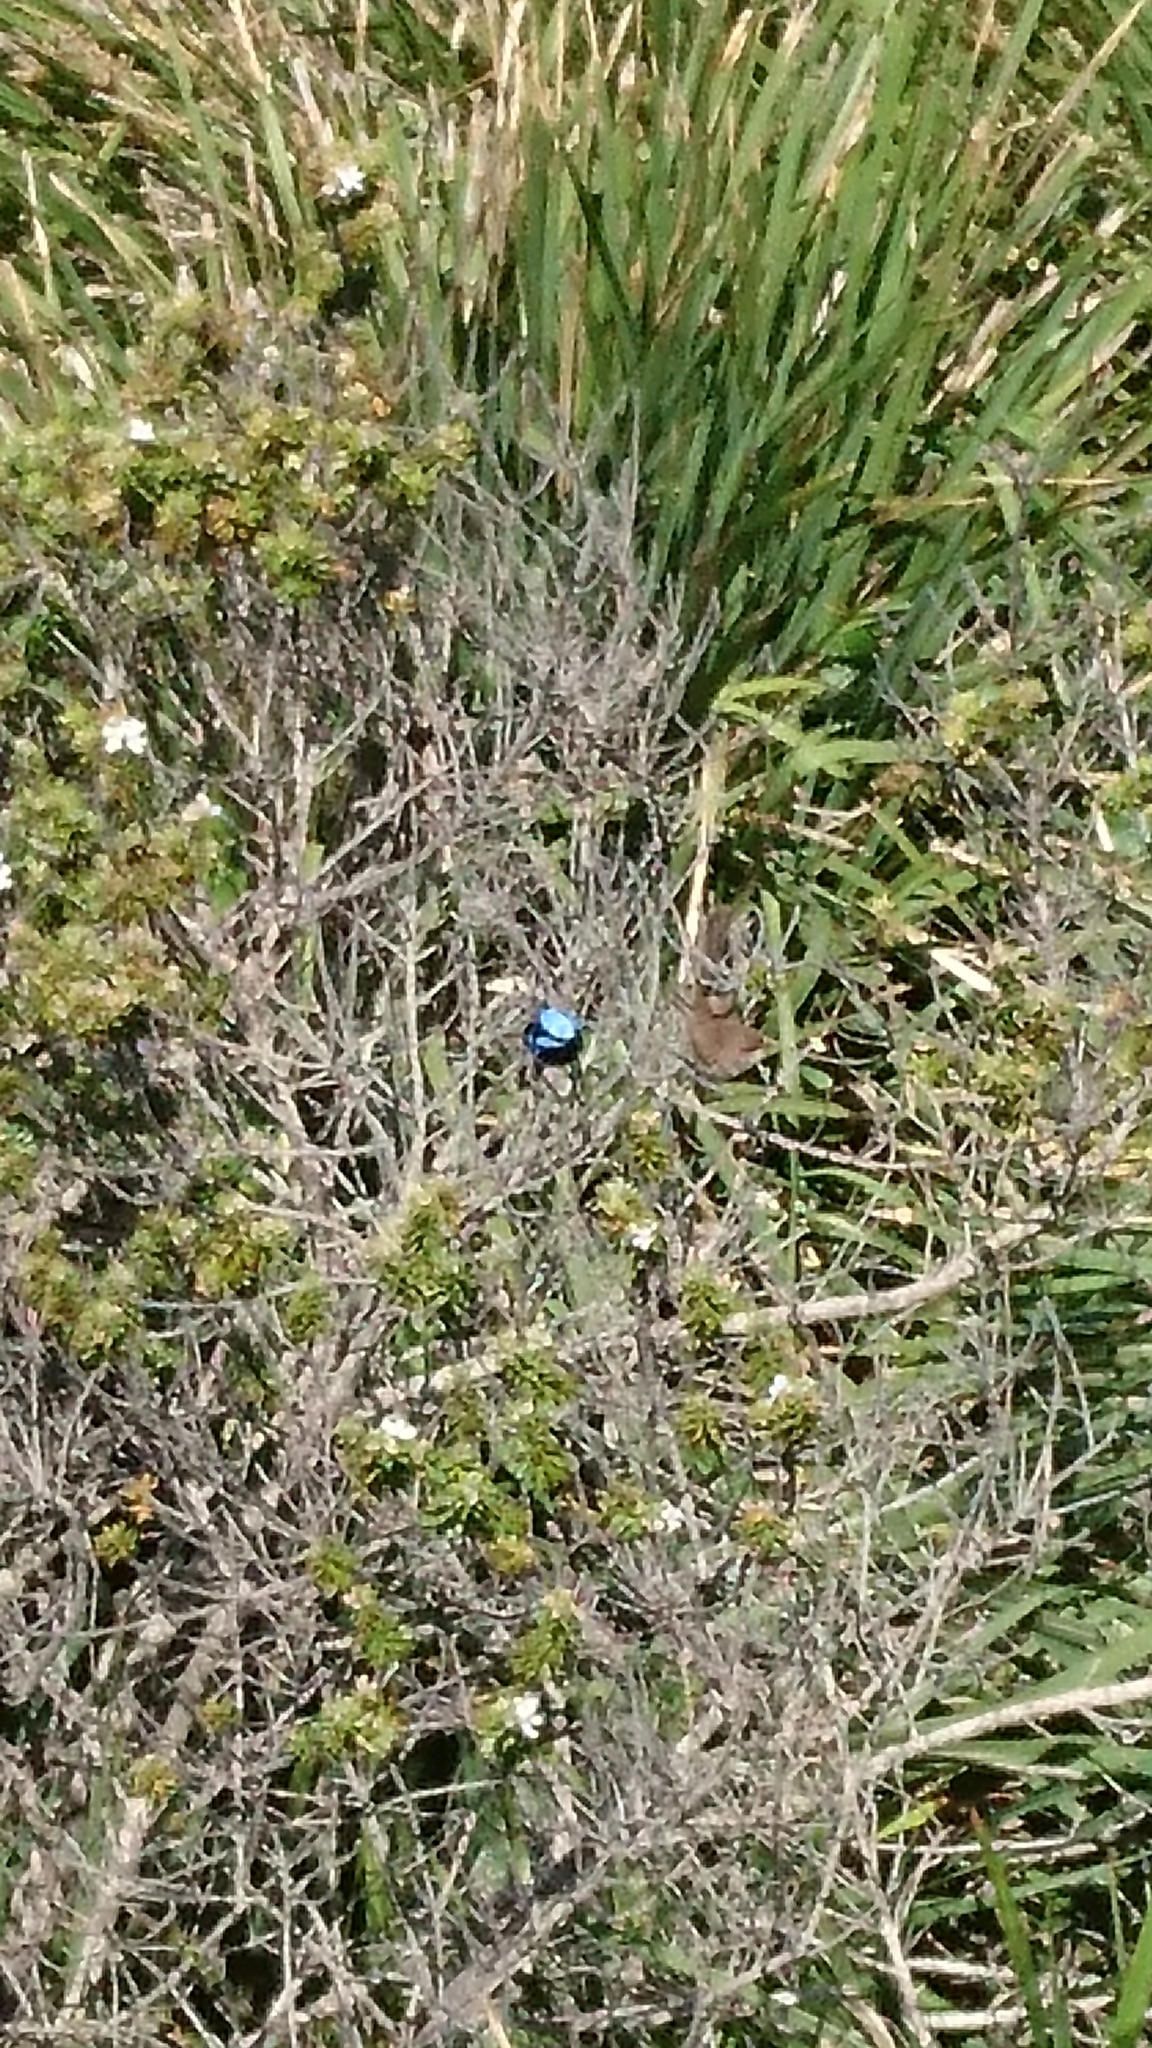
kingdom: Animalia
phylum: Chordata
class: Aves
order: Passeriformes
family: Maluridae
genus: Malurus
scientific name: Malurus cyaneus
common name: Superb fairywren
